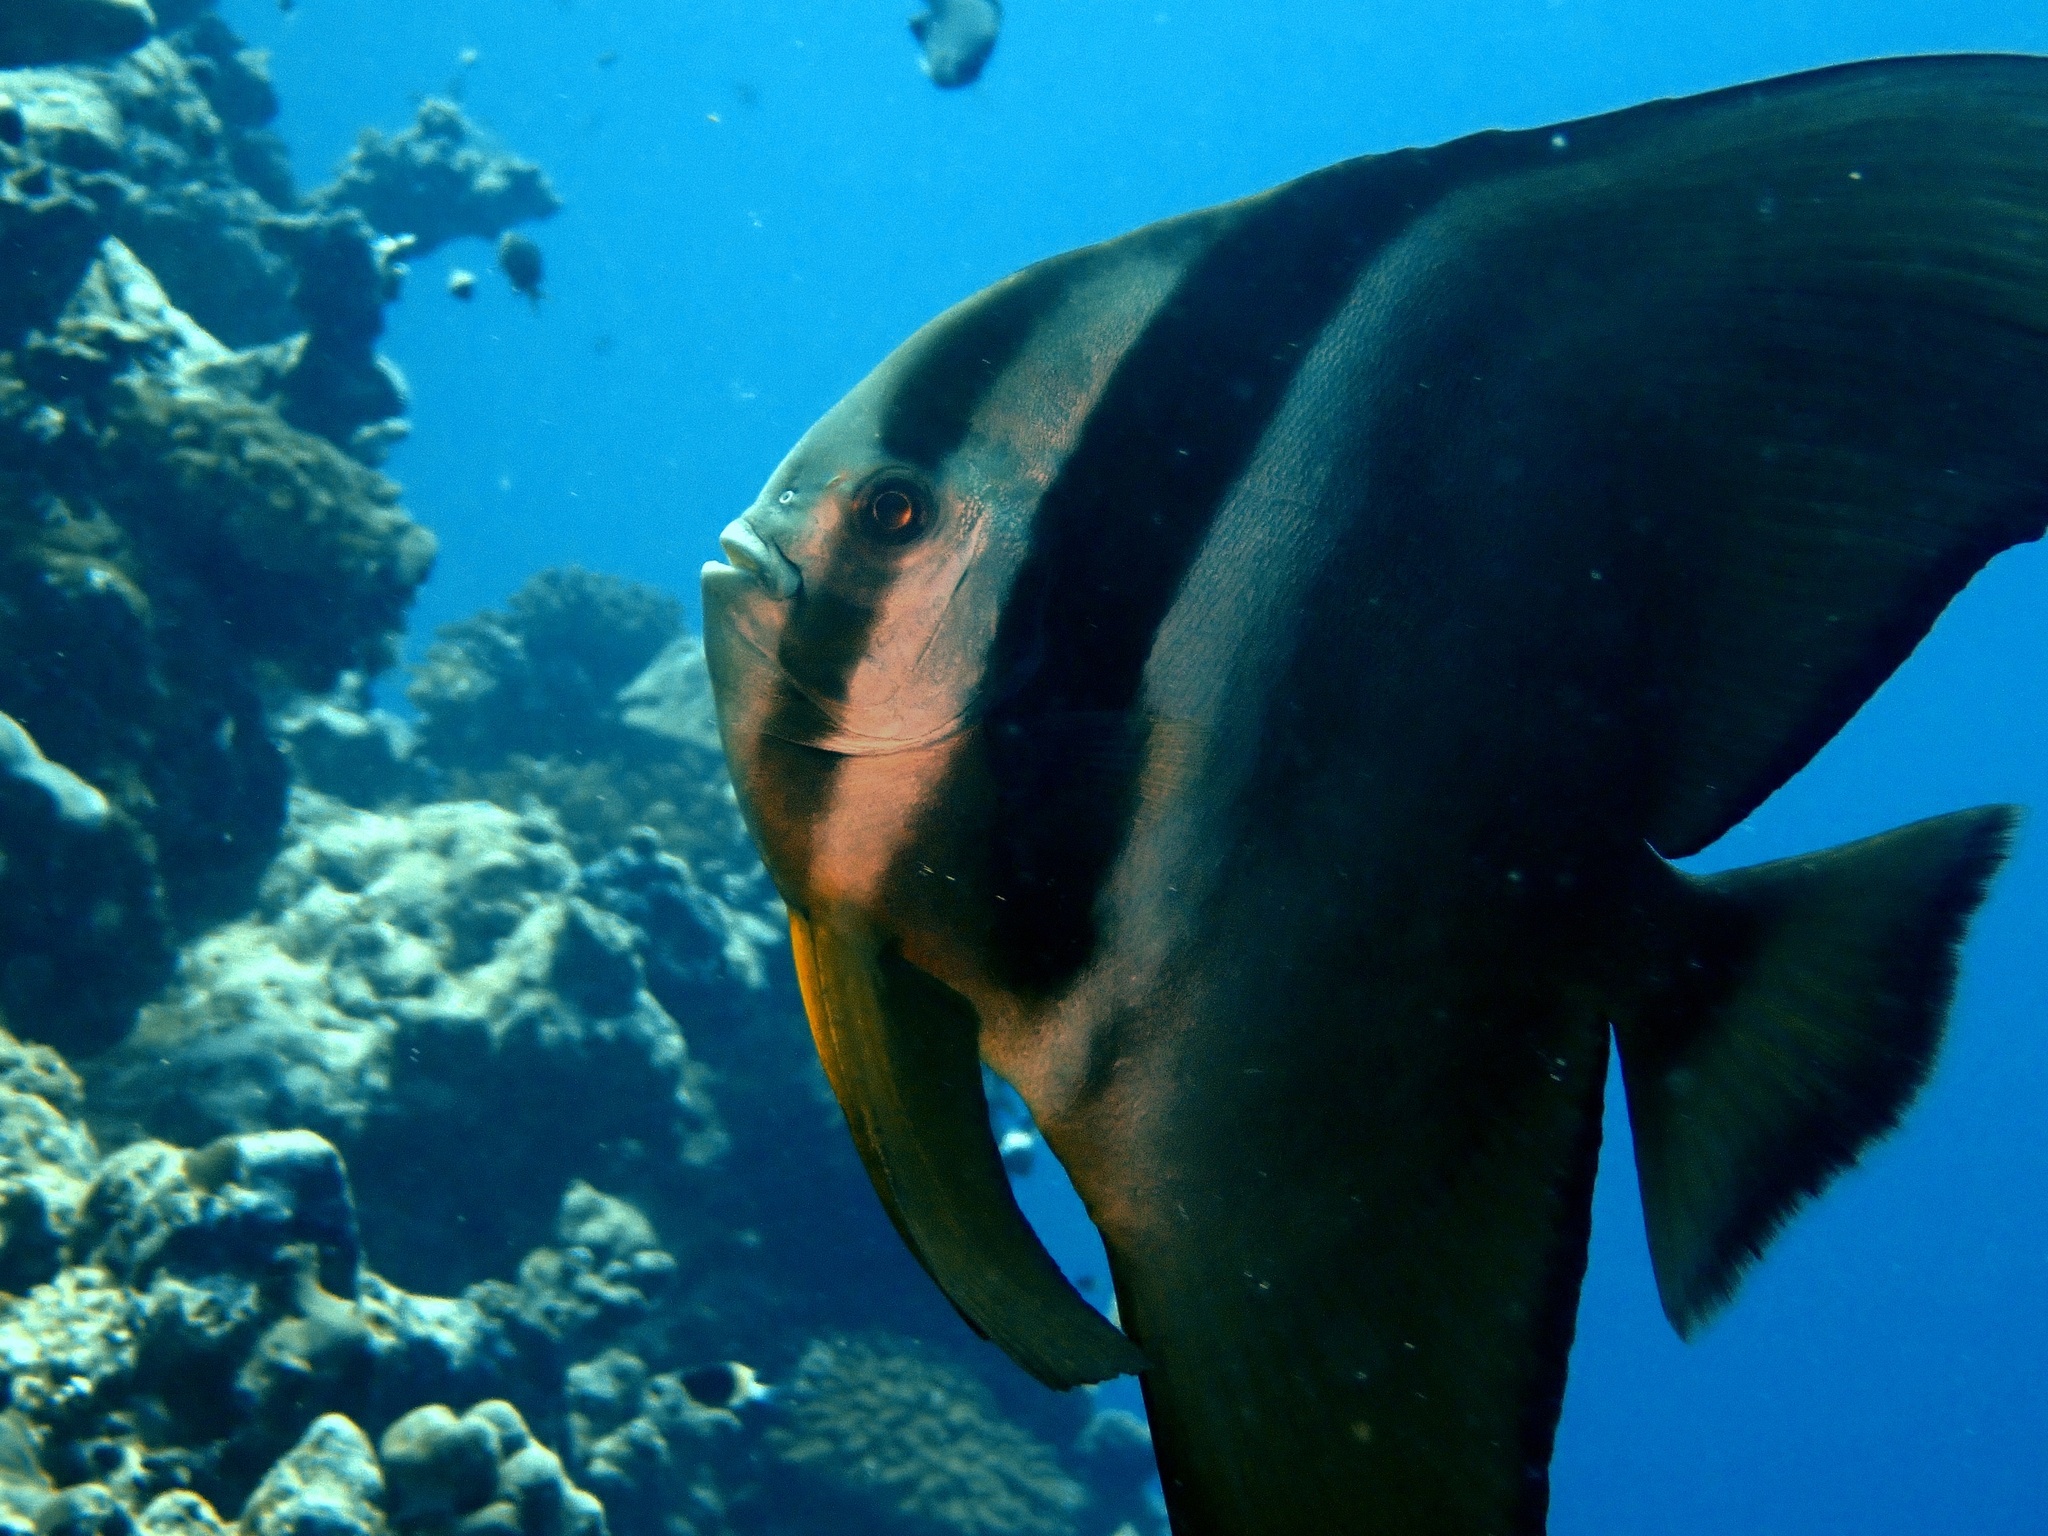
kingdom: Animalia
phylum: Chordata
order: Perciformes
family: Ephippidae
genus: Platax
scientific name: Platax teira
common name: Longfin baitfish
